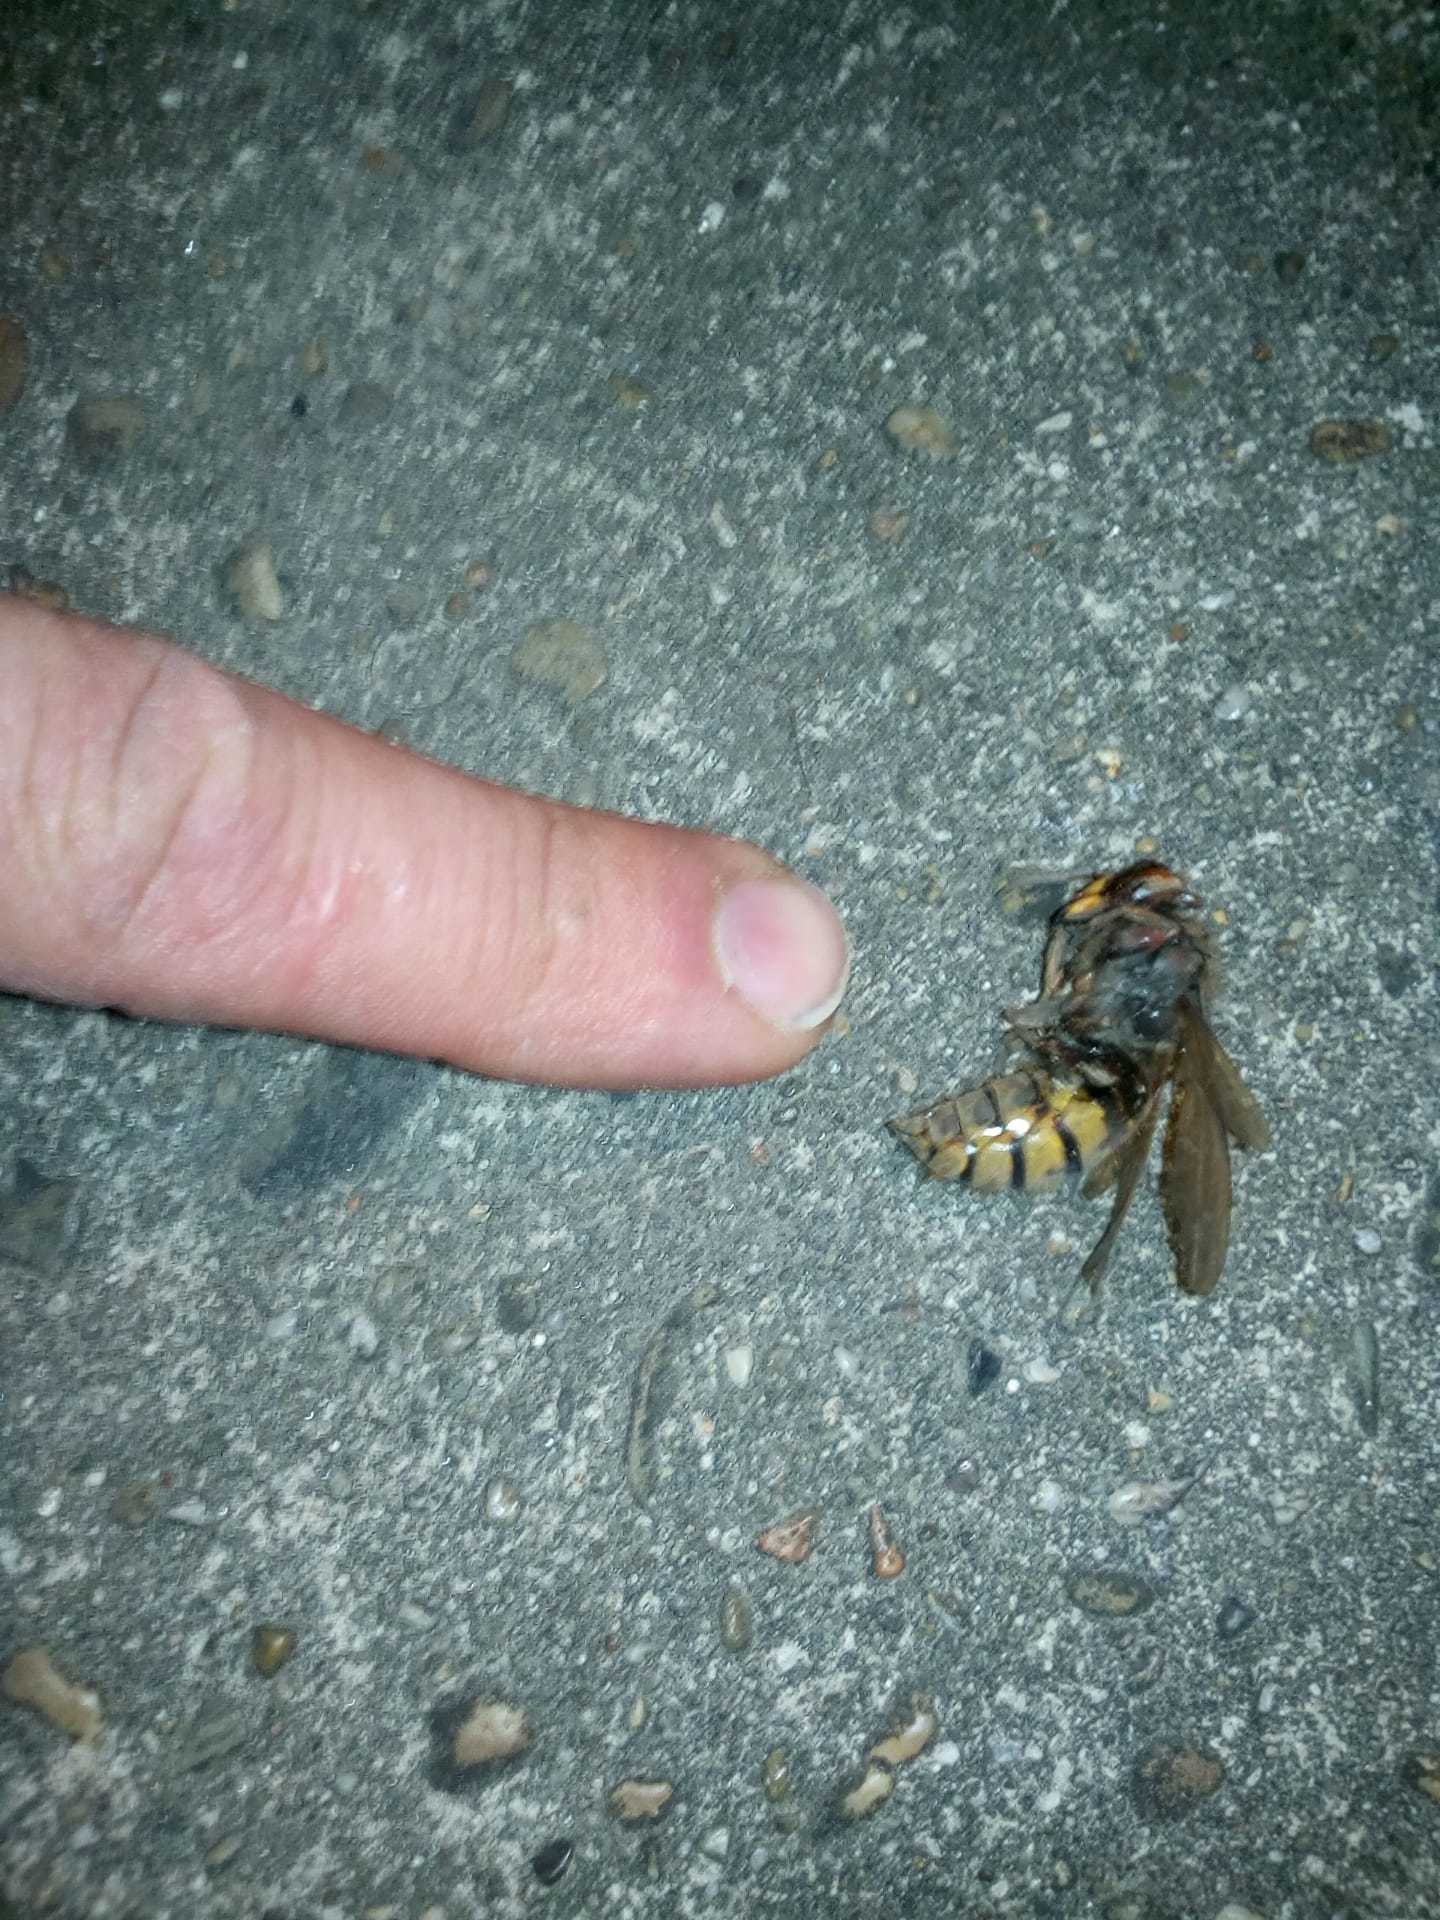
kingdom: Animalia
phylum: Arthropoda
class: Insecta
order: Hymenoptera
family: Vespidae
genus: Vespa
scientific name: Vespa crabro
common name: Hornet
